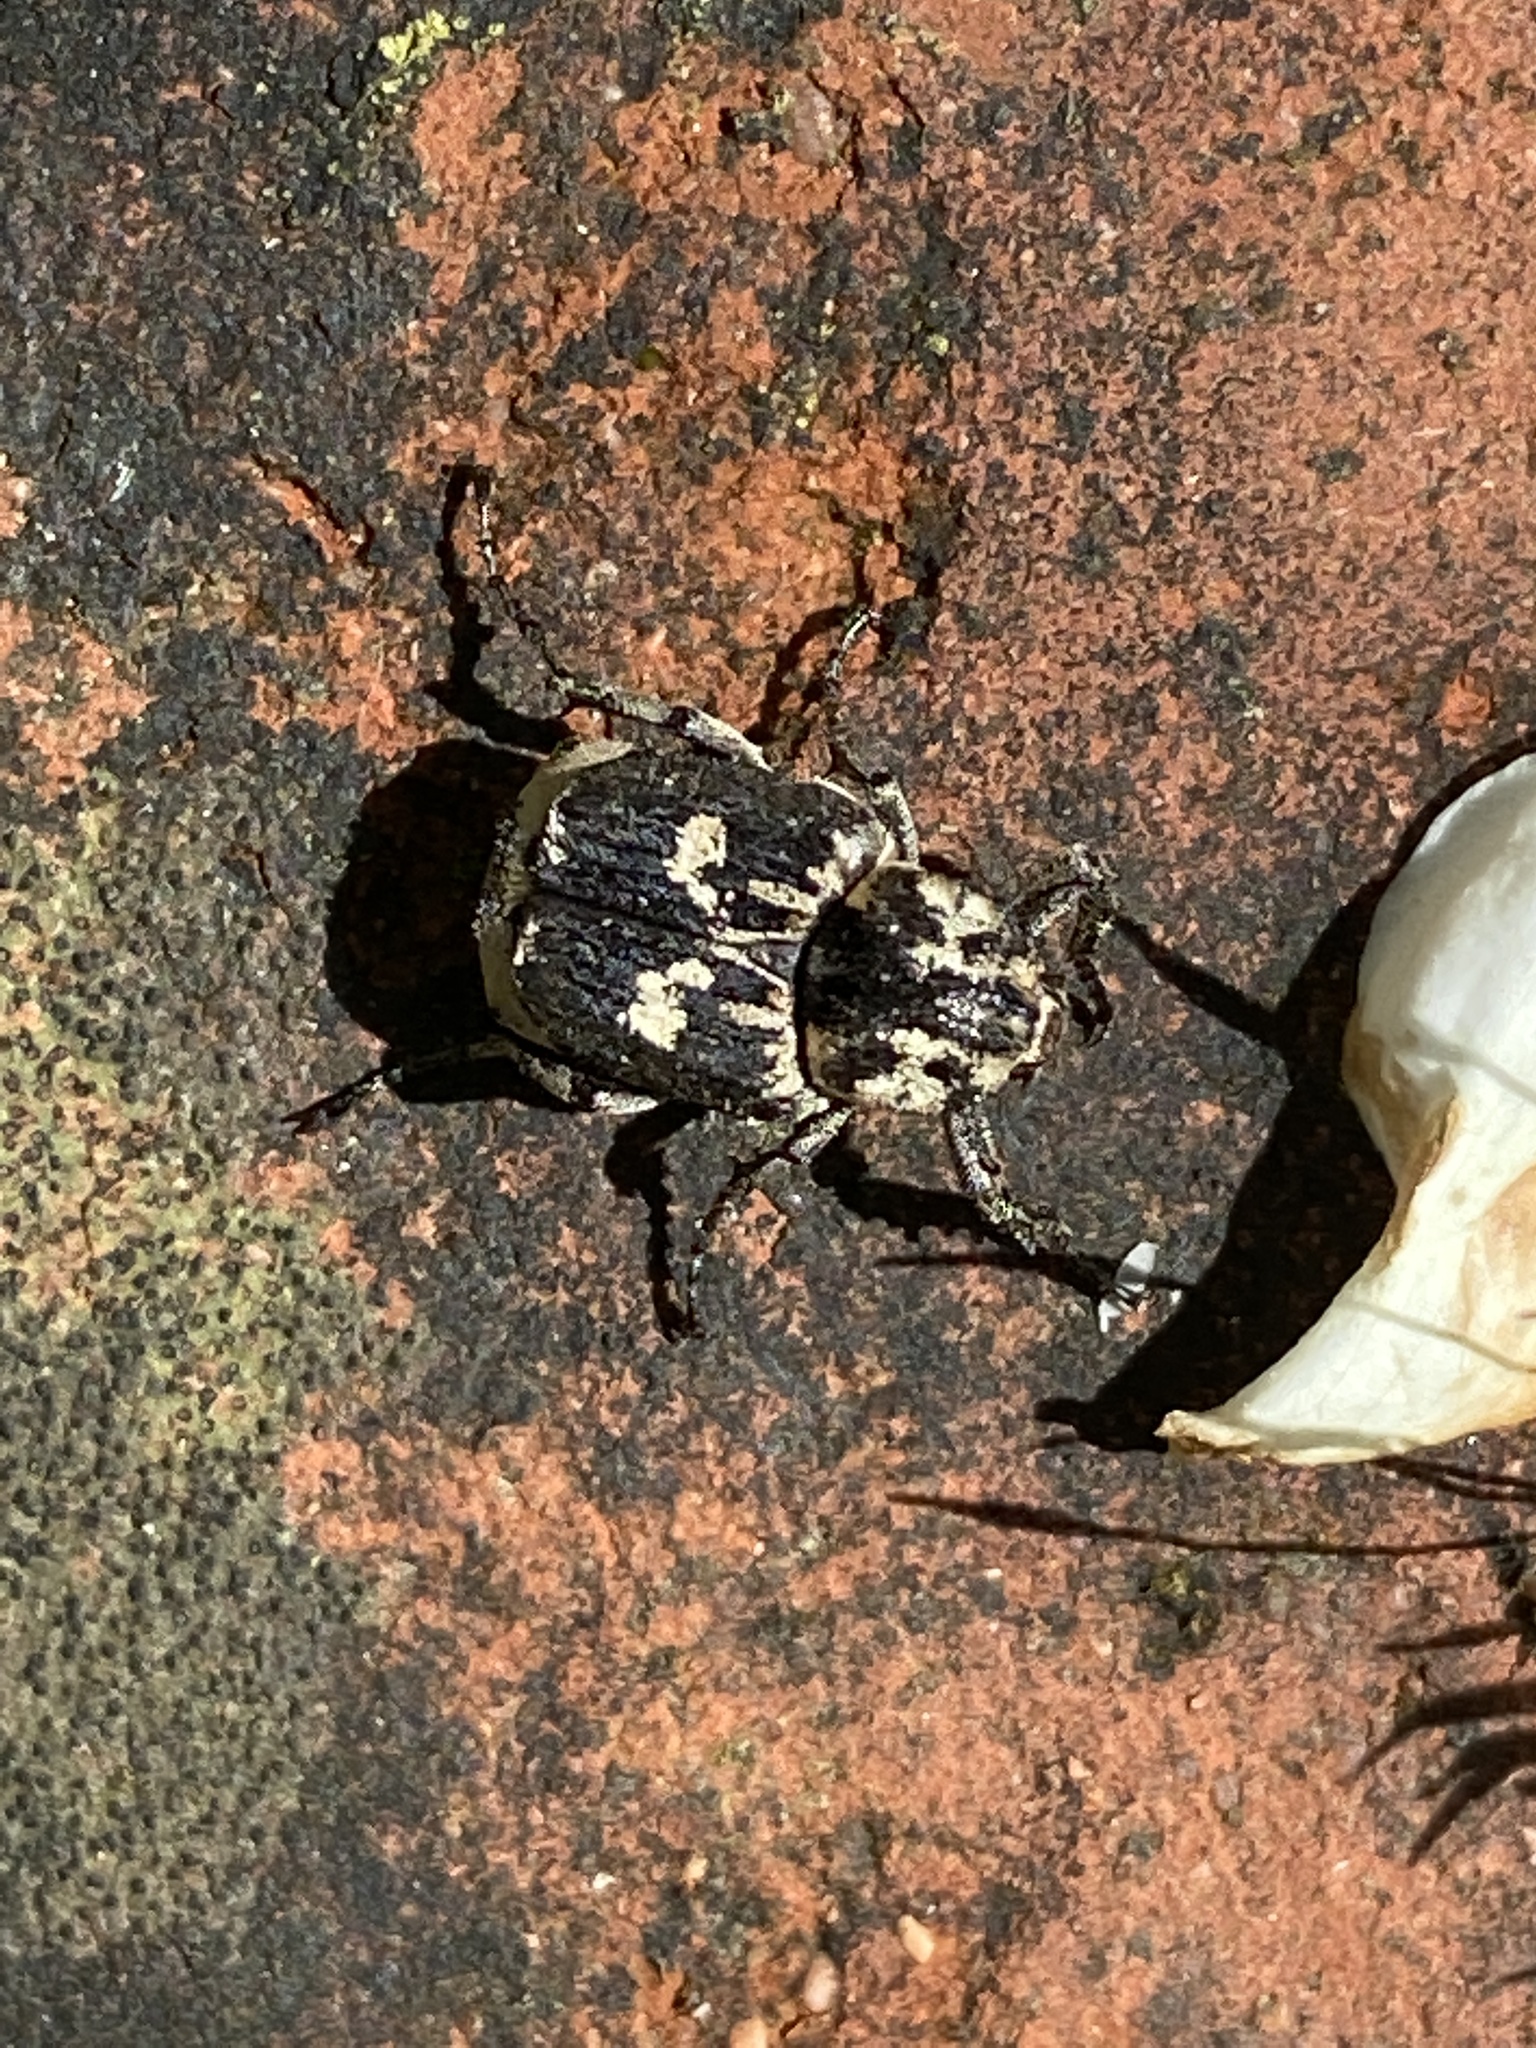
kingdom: Animalia
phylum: Arthropoda
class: Insecta
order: Coleoptera
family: Scarabaeidae
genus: Valgus
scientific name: Valgus hemipterus
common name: Bug flower chafer
